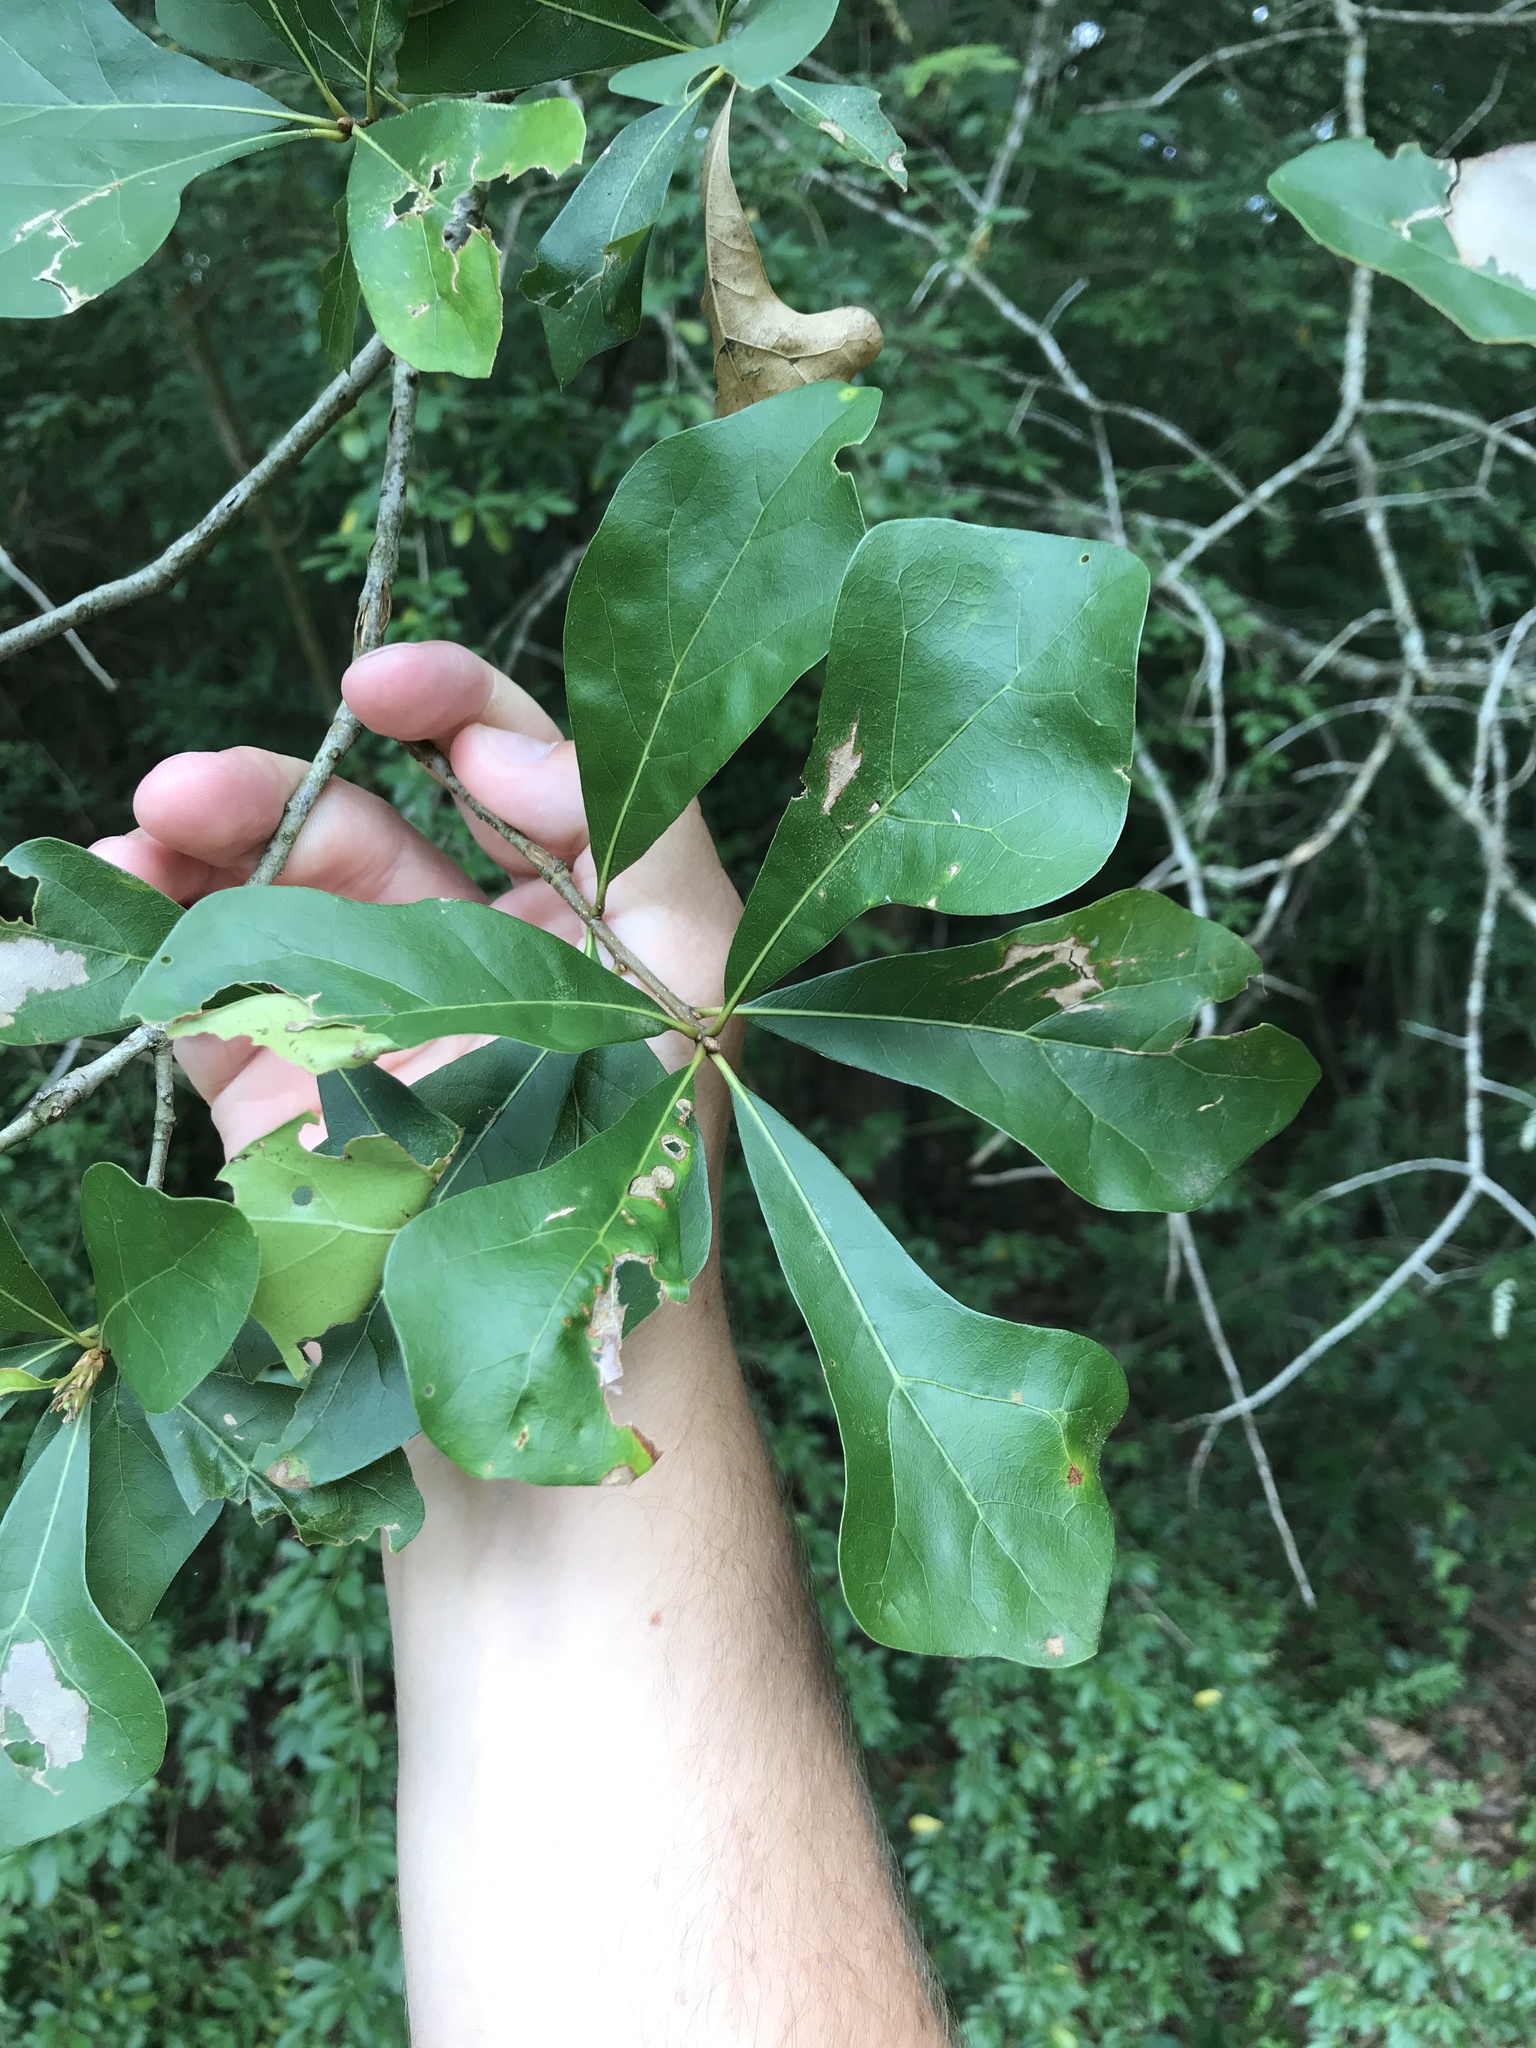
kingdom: Plantae
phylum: Tracheophyta
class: Magnoliopsida
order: Fagales
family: Fagaceae
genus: Quercus
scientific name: Quercus nigra
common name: Water oak
